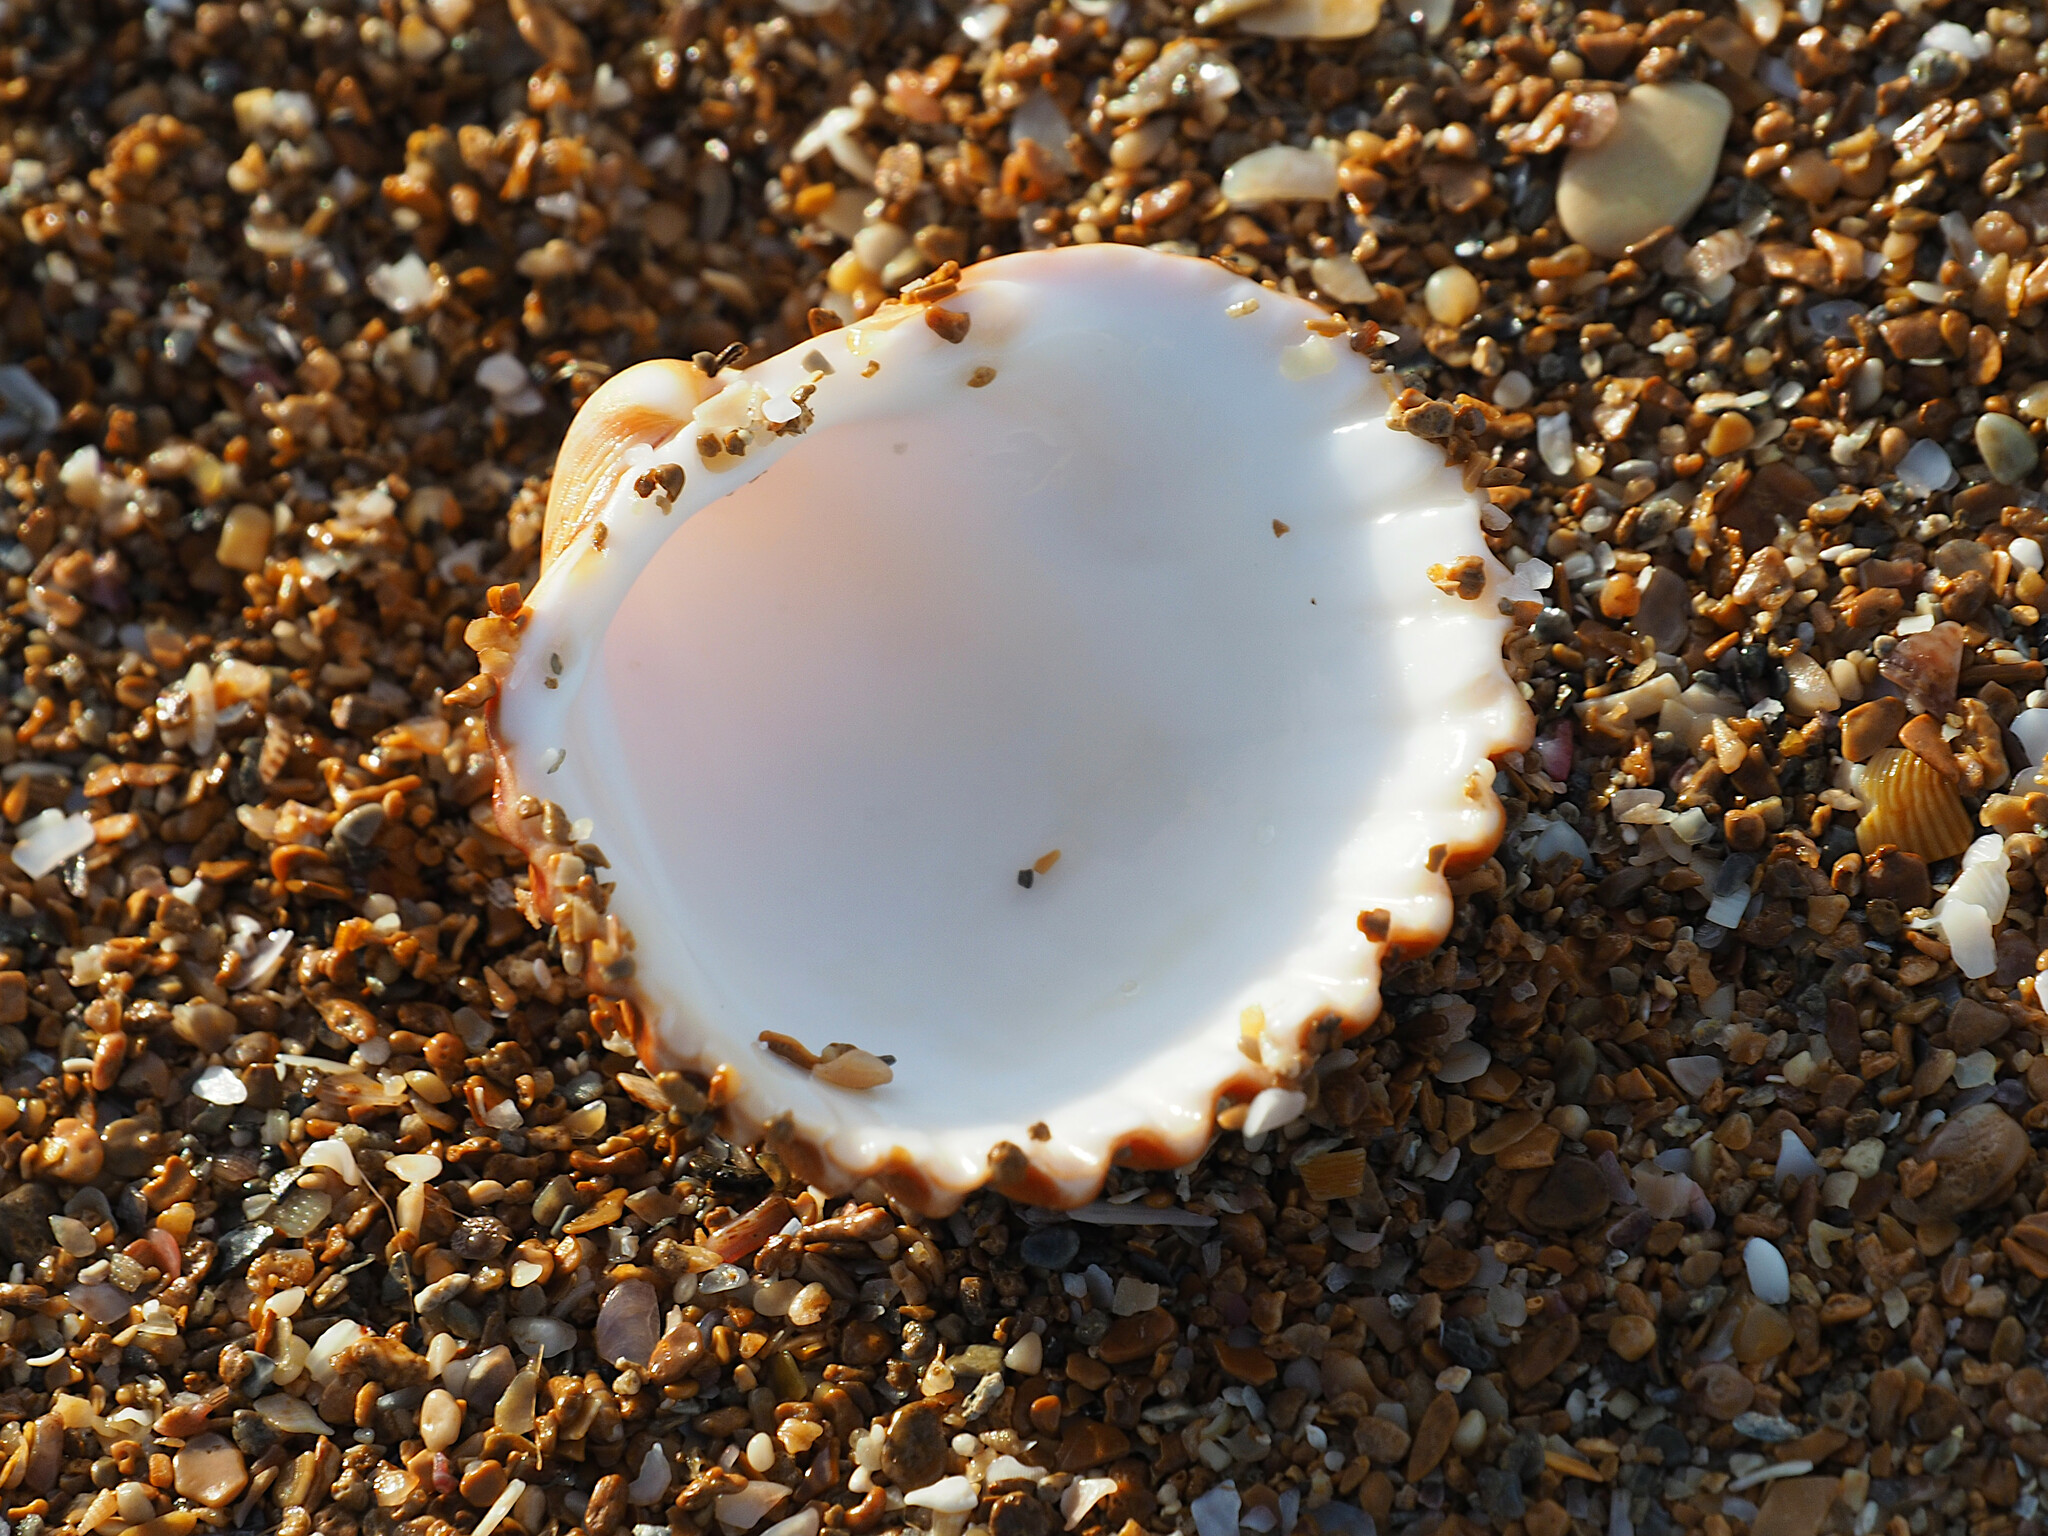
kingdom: Animalia
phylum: Mollusca
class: Bivalvia
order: Cardiida
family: Cardiidae
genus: Acanthocardia
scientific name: Acanthocardia tuberculata
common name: Rough cockle
